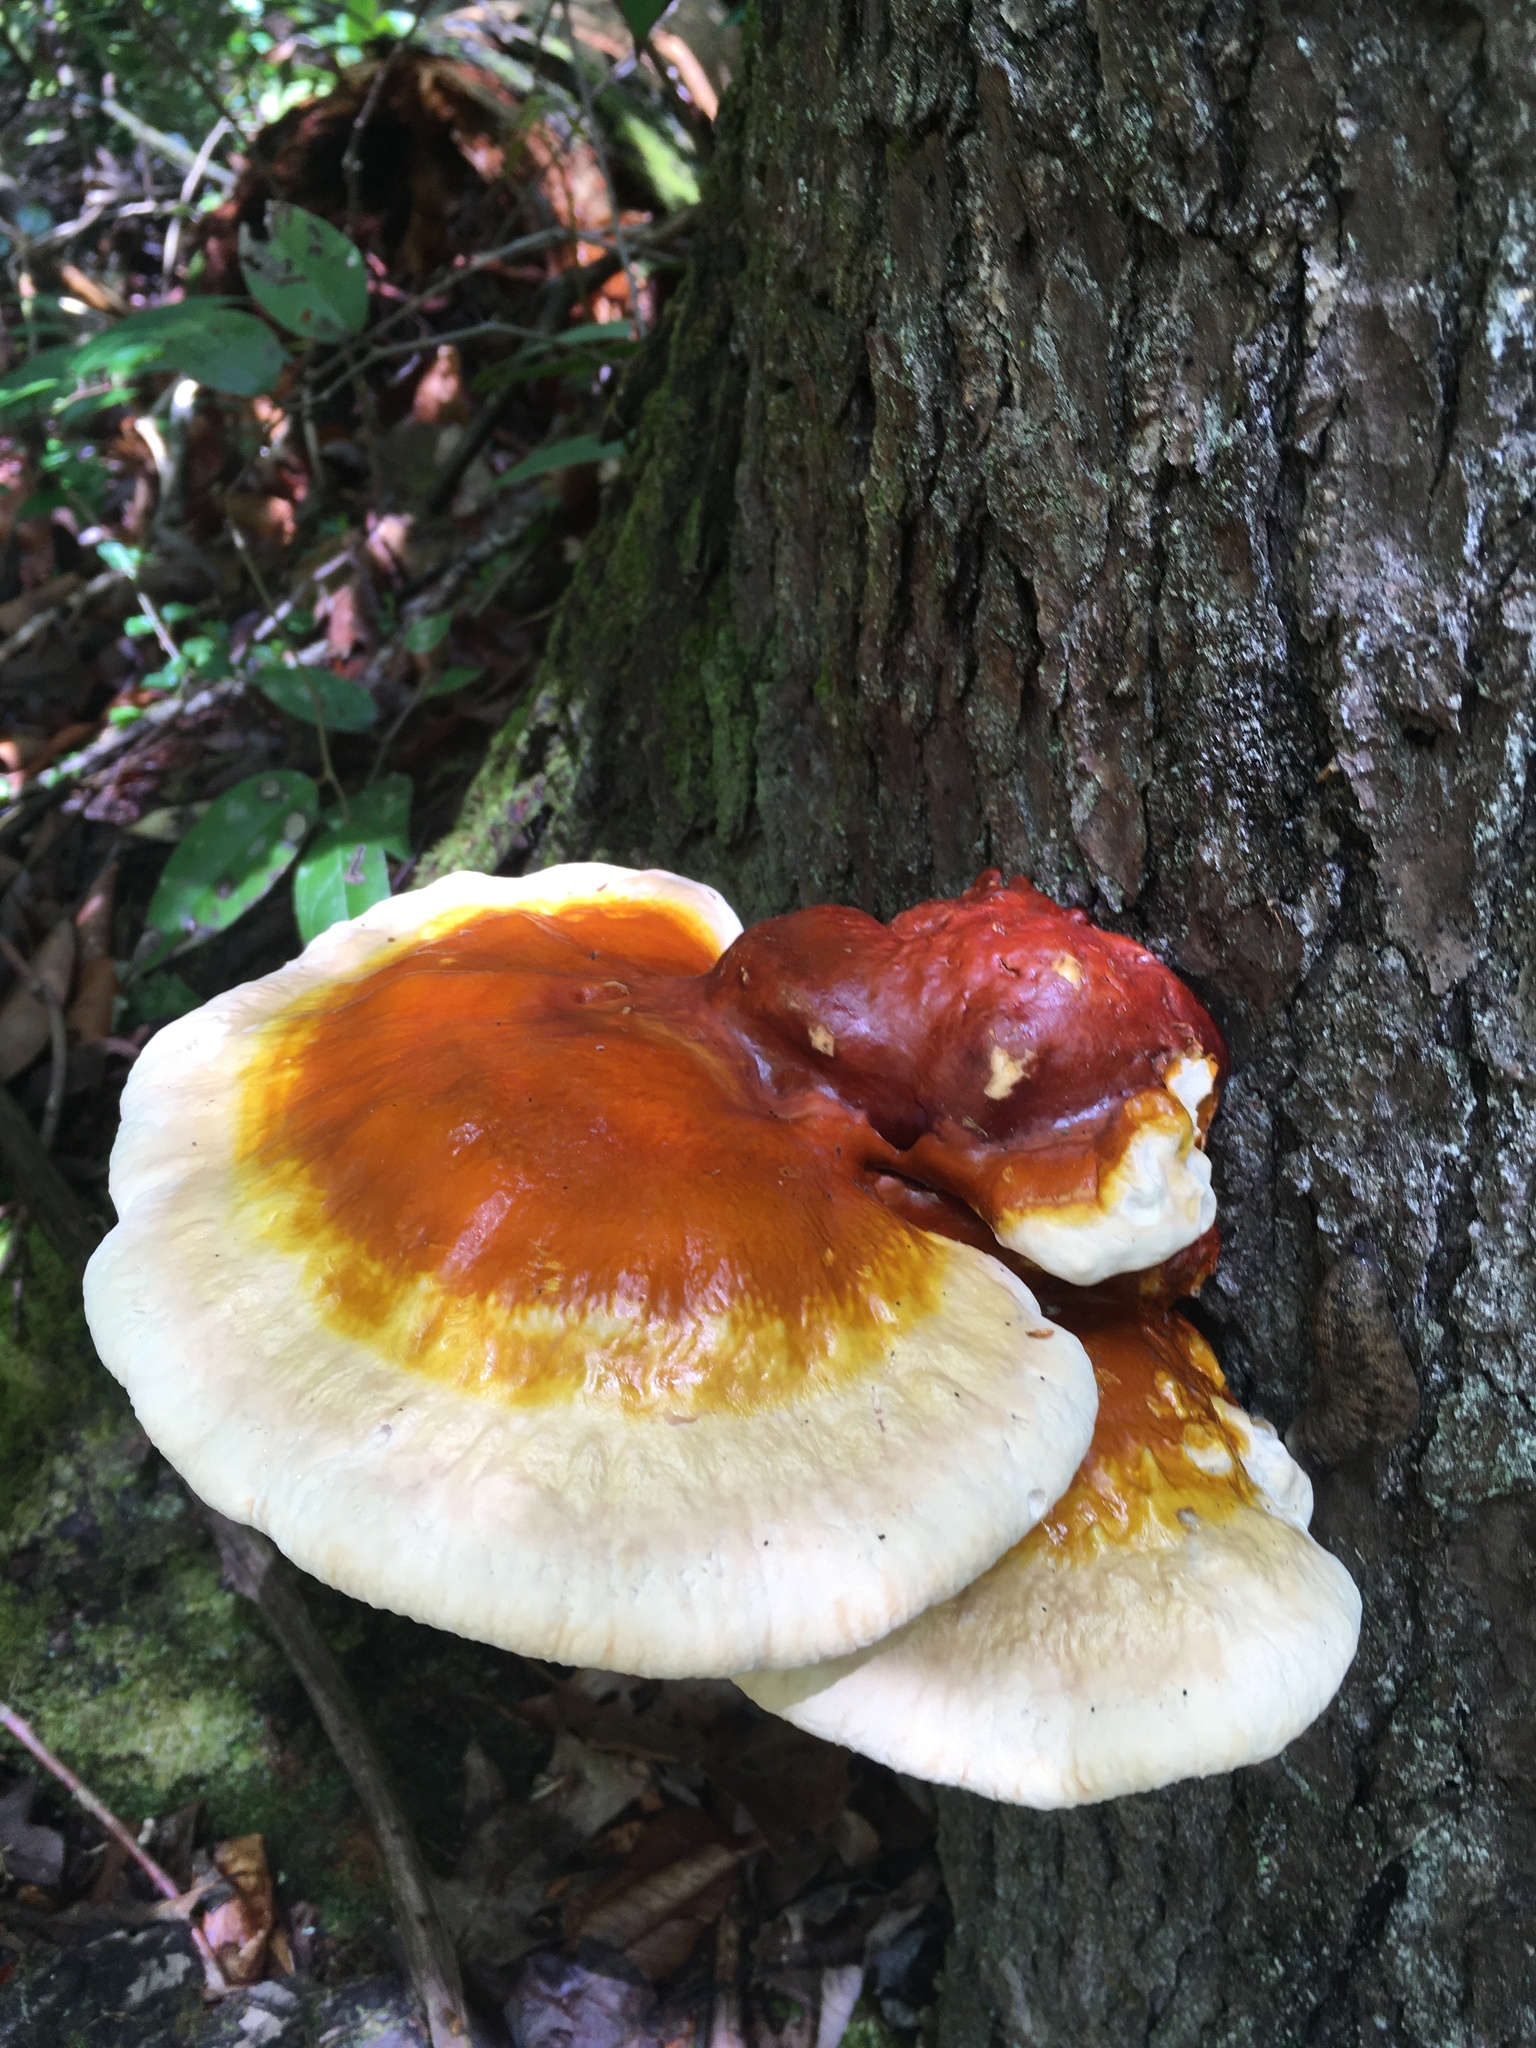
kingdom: Fungi
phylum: Basidiomycota
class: Agaricomycetes
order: Polyporales
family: Polyporaceae
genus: Ganoderma
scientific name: Ganoderma tsugae
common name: Hemlock varnish shelf
